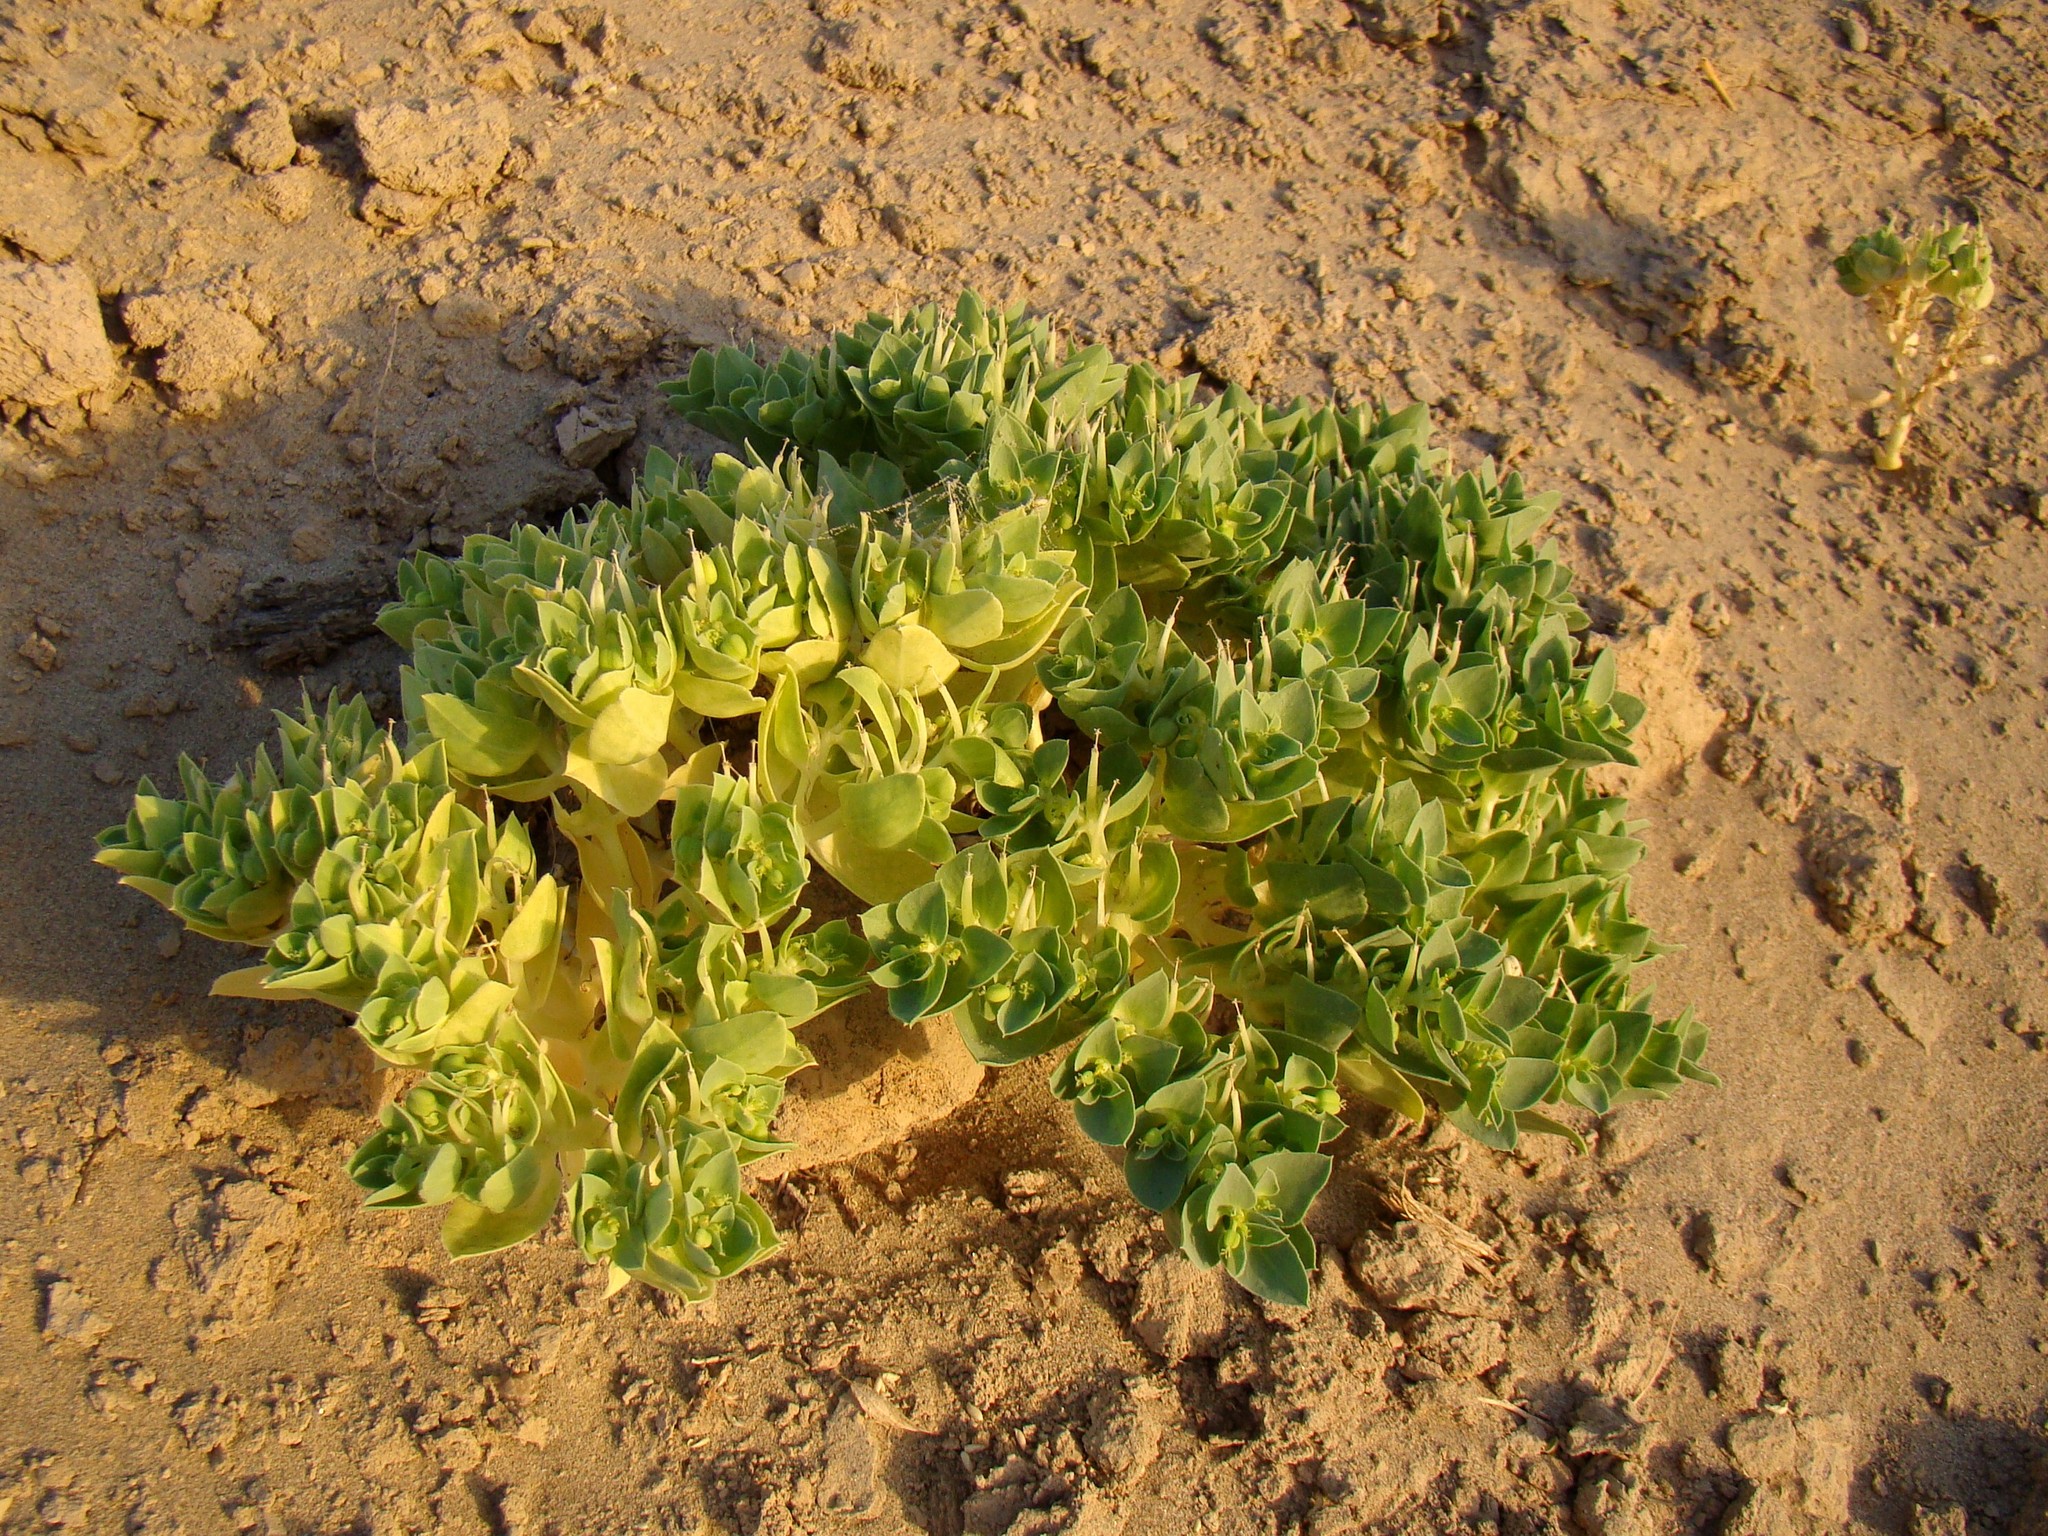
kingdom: Plantae
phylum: Tracheophyta
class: Magnoliopsida
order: Malpighiales
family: Euphorbiaceae
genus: Euphorbia
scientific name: Euphorbia turczaninowii
